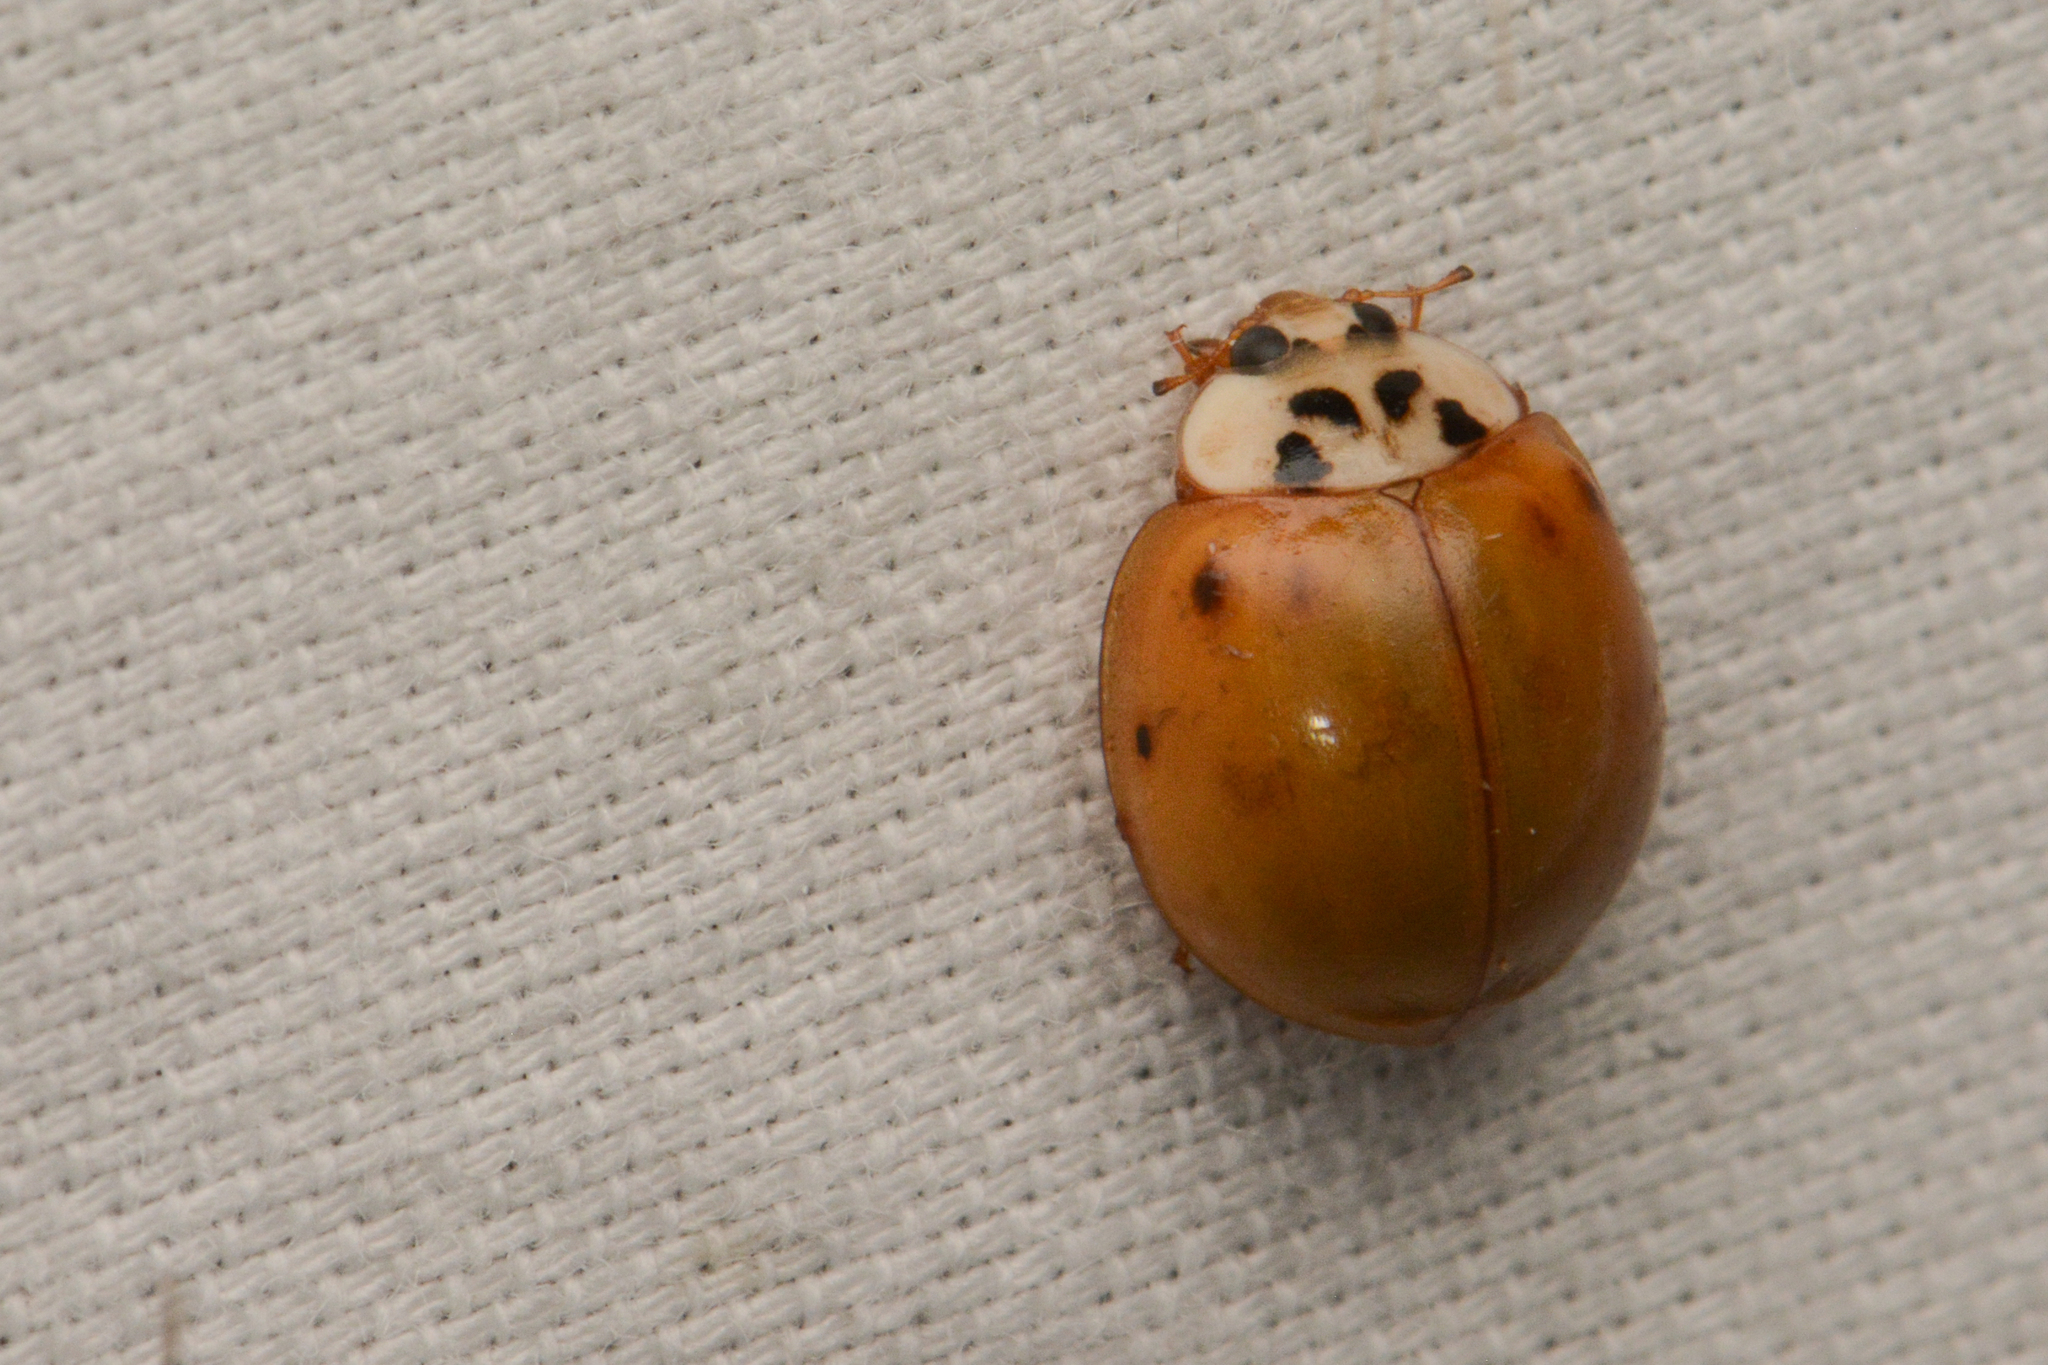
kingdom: Animalia
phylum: Arthropoda
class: Insecta
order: Coleoptera
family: Coccinellidae
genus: Harmonia
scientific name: Harmonia axyridis
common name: Harlequin ladybird
